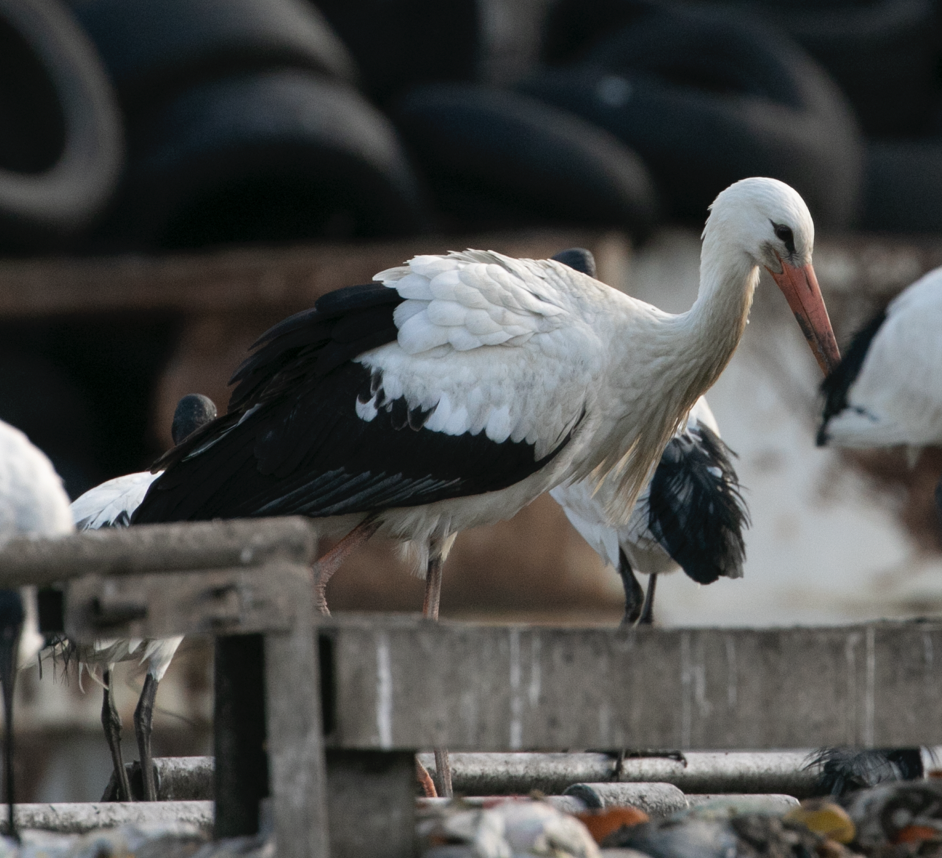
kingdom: Animalia
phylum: Chordata
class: Aves
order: Ciconiiformes
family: Ciconiidae
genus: Ciconia
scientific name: Ciconia ciconia
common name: White stork
